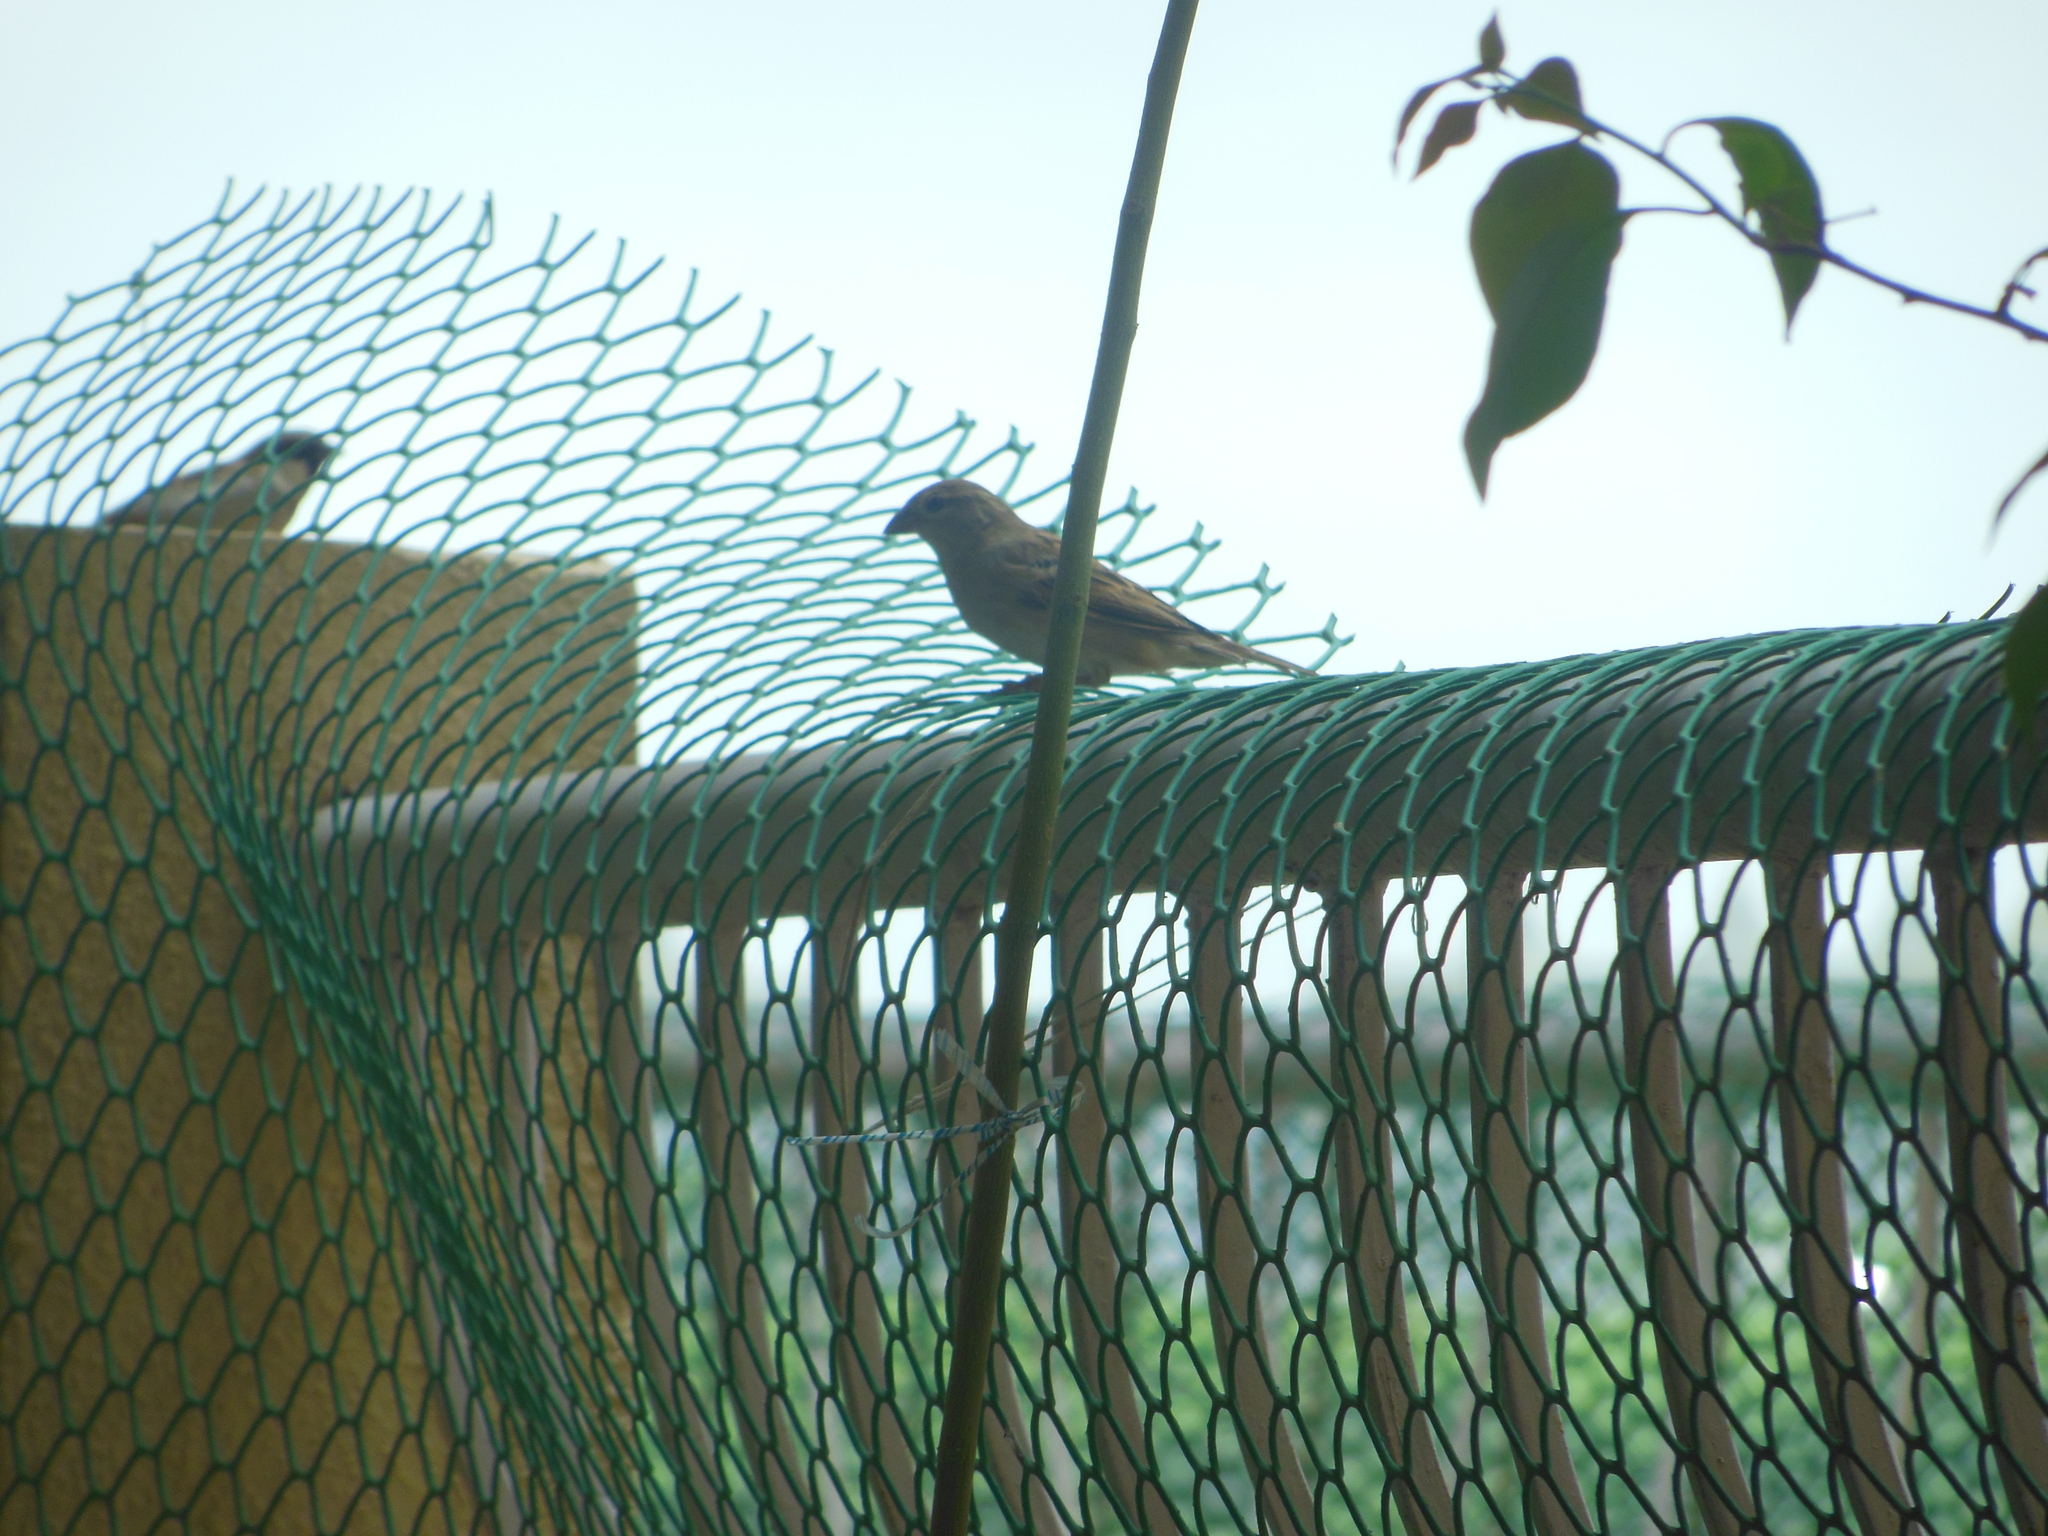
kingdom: Animalia
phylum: Chordata
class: Aves
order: Passeriformes
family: Passeridae
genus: Passer
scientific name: Passer domesticus
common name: House sparrow
